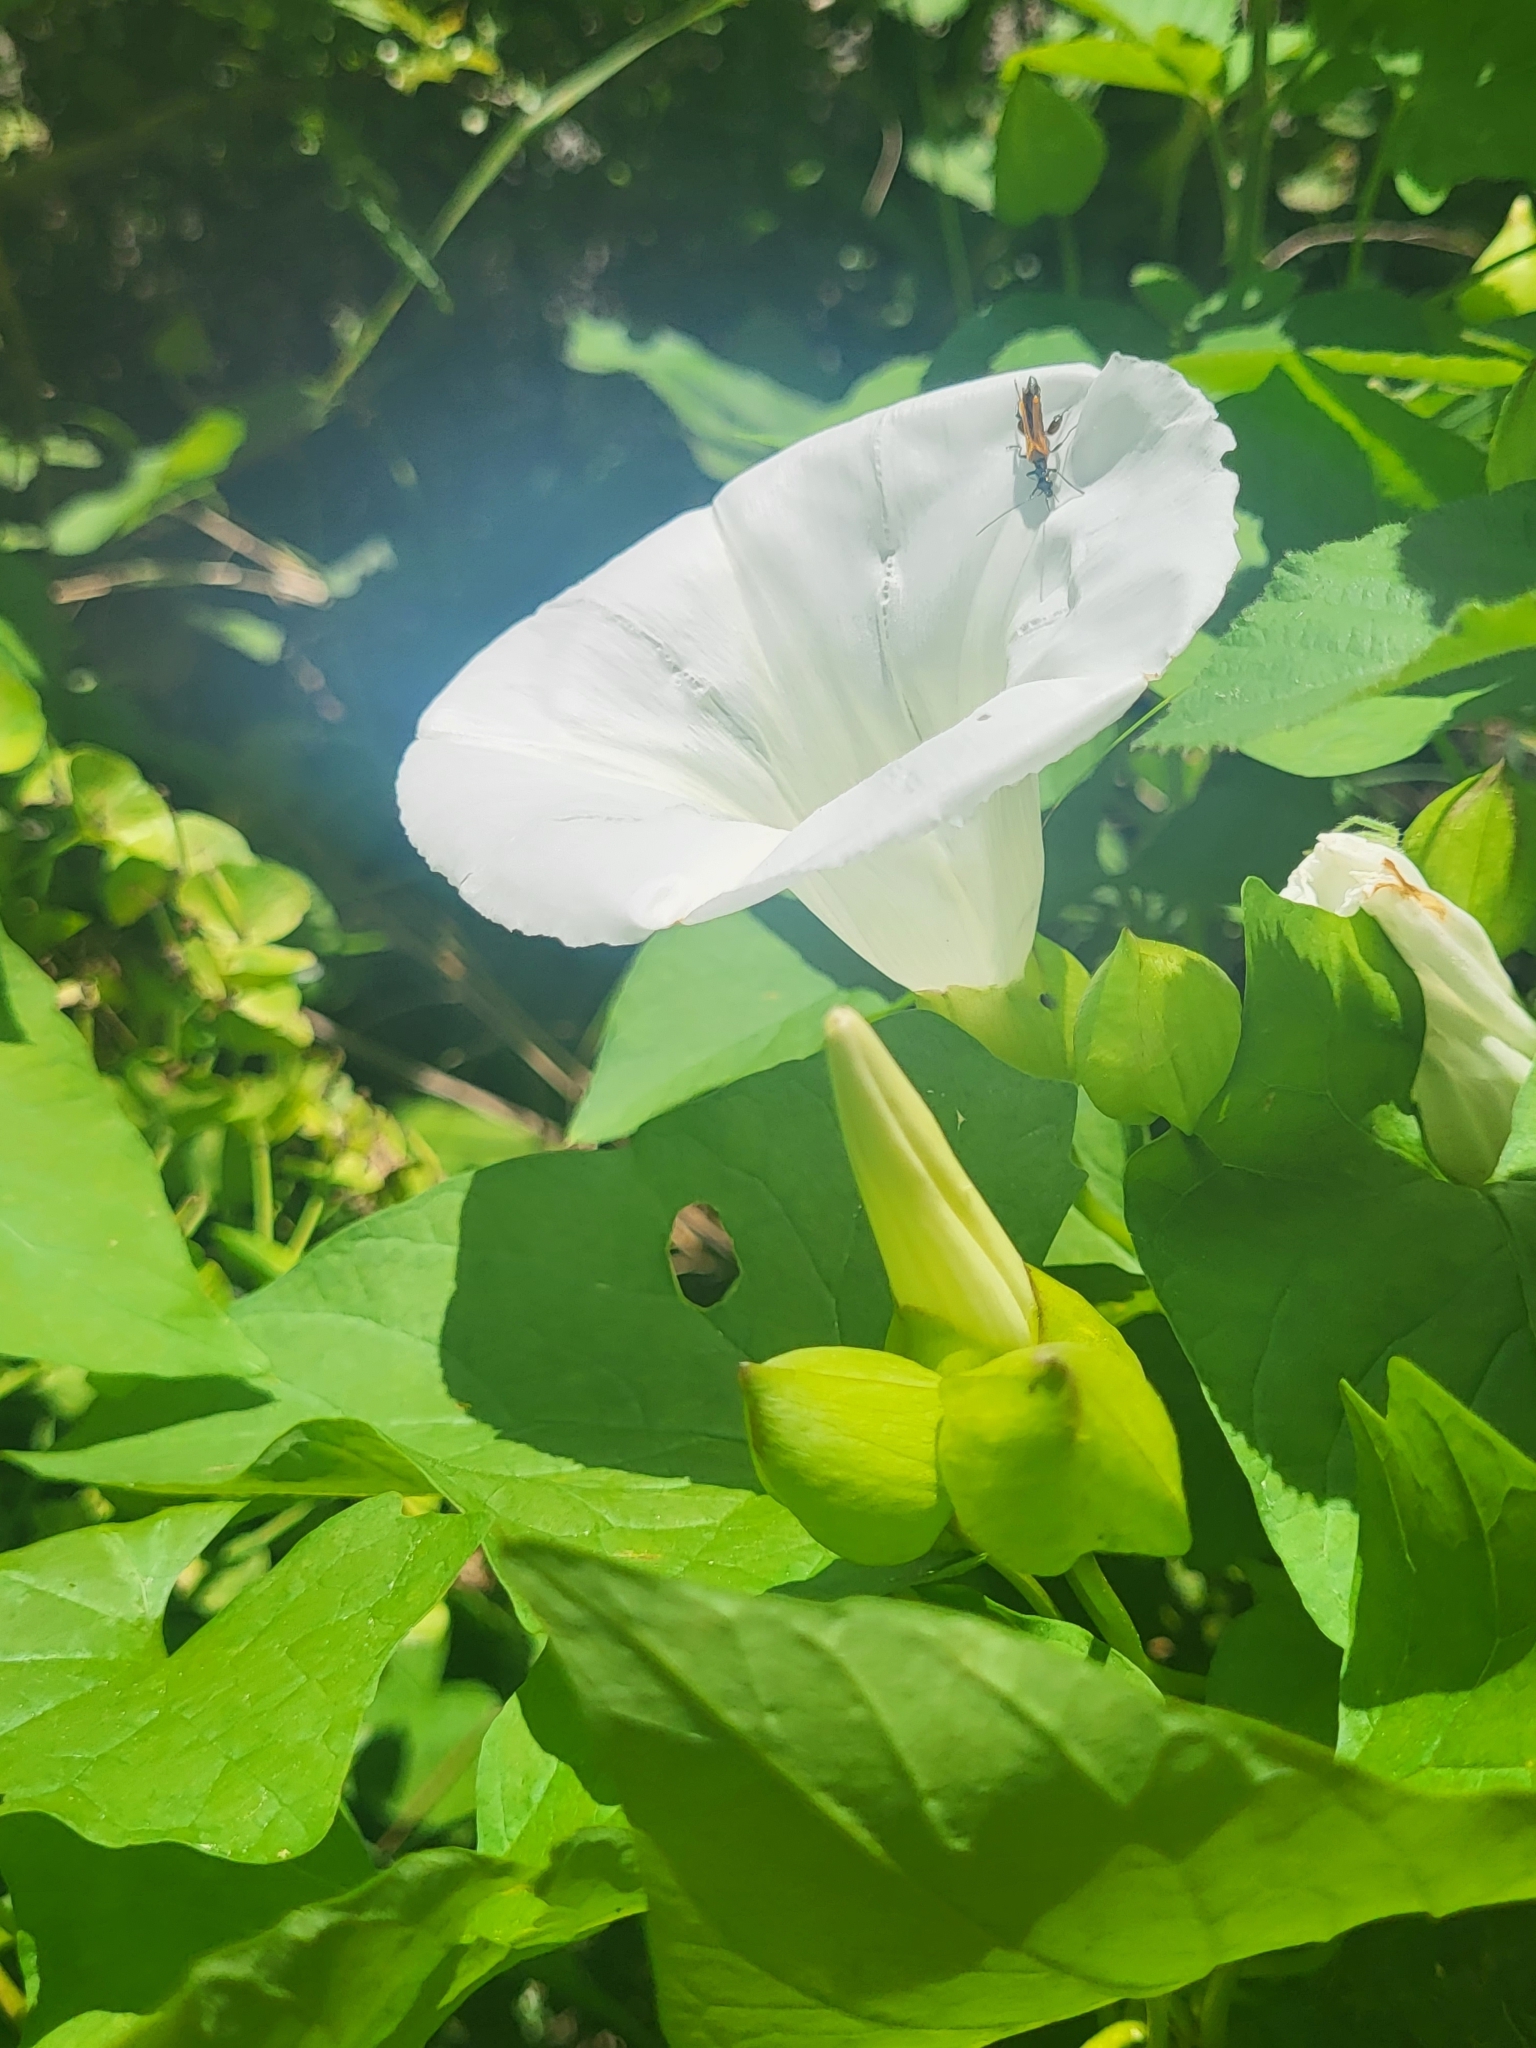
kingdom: Plantae
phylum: Tracheophyta
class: Magnoliopsida
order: Solanales
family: Convolvulaceae
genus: Calystegia
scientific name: Calystegia silvatica
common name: Large bindweed
